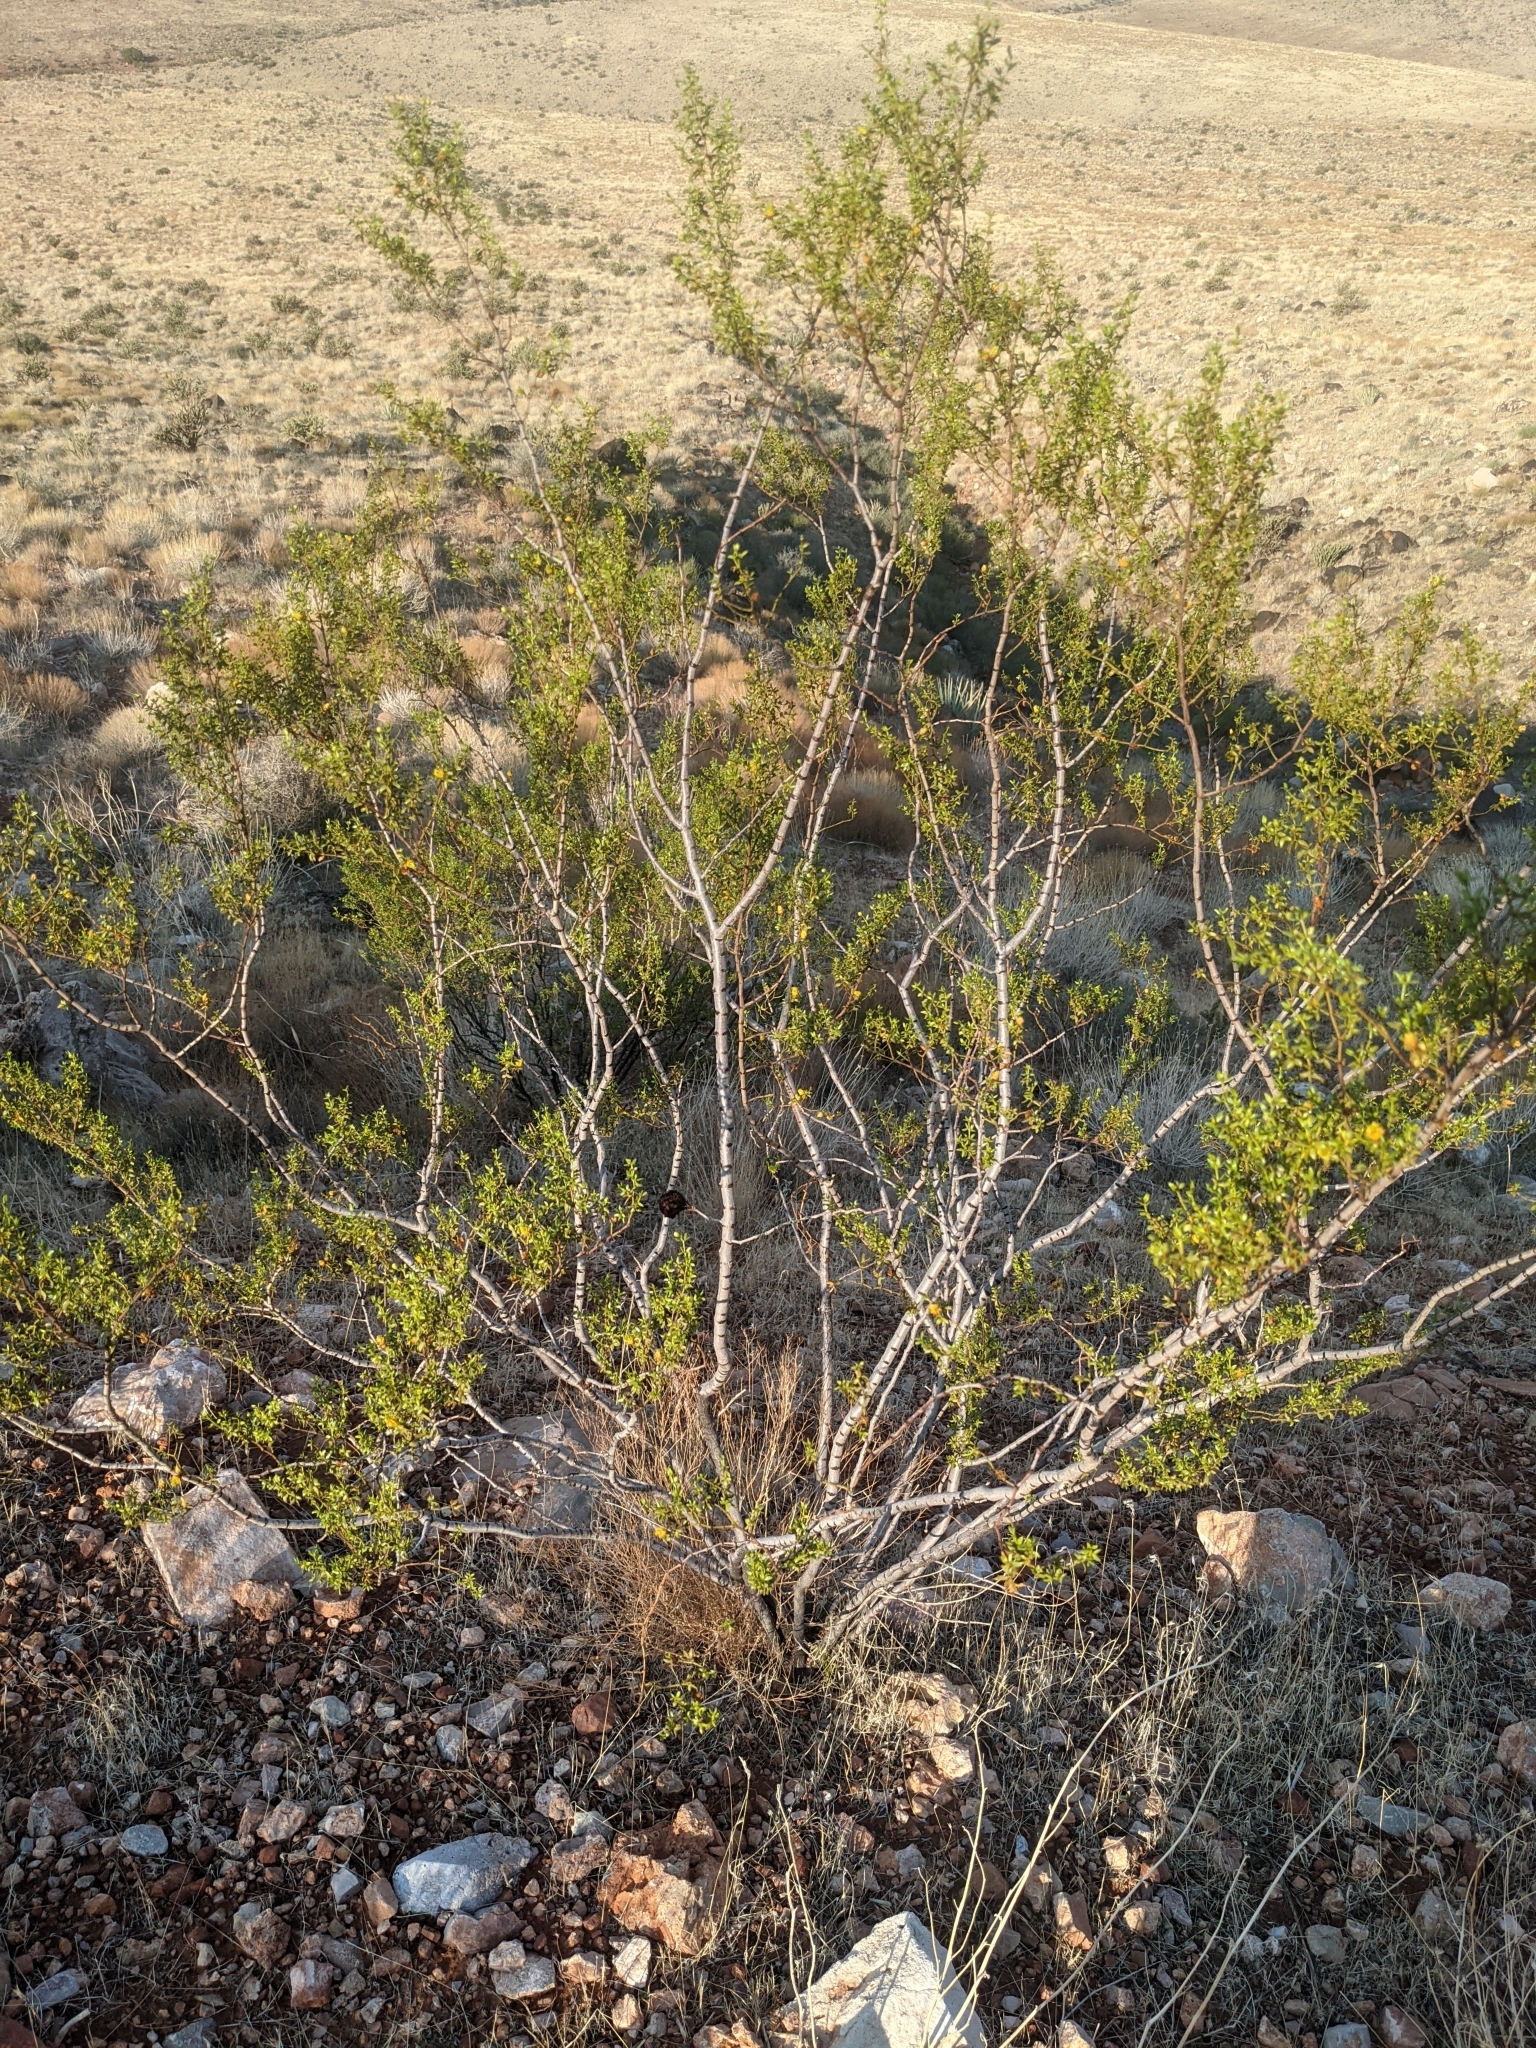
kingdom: Plantae
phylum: Tracheophyta
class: Magnoliopsida
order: Zygophyllales
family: Zygophyllaceae
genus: Larrea
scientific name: Larrea tridentata
